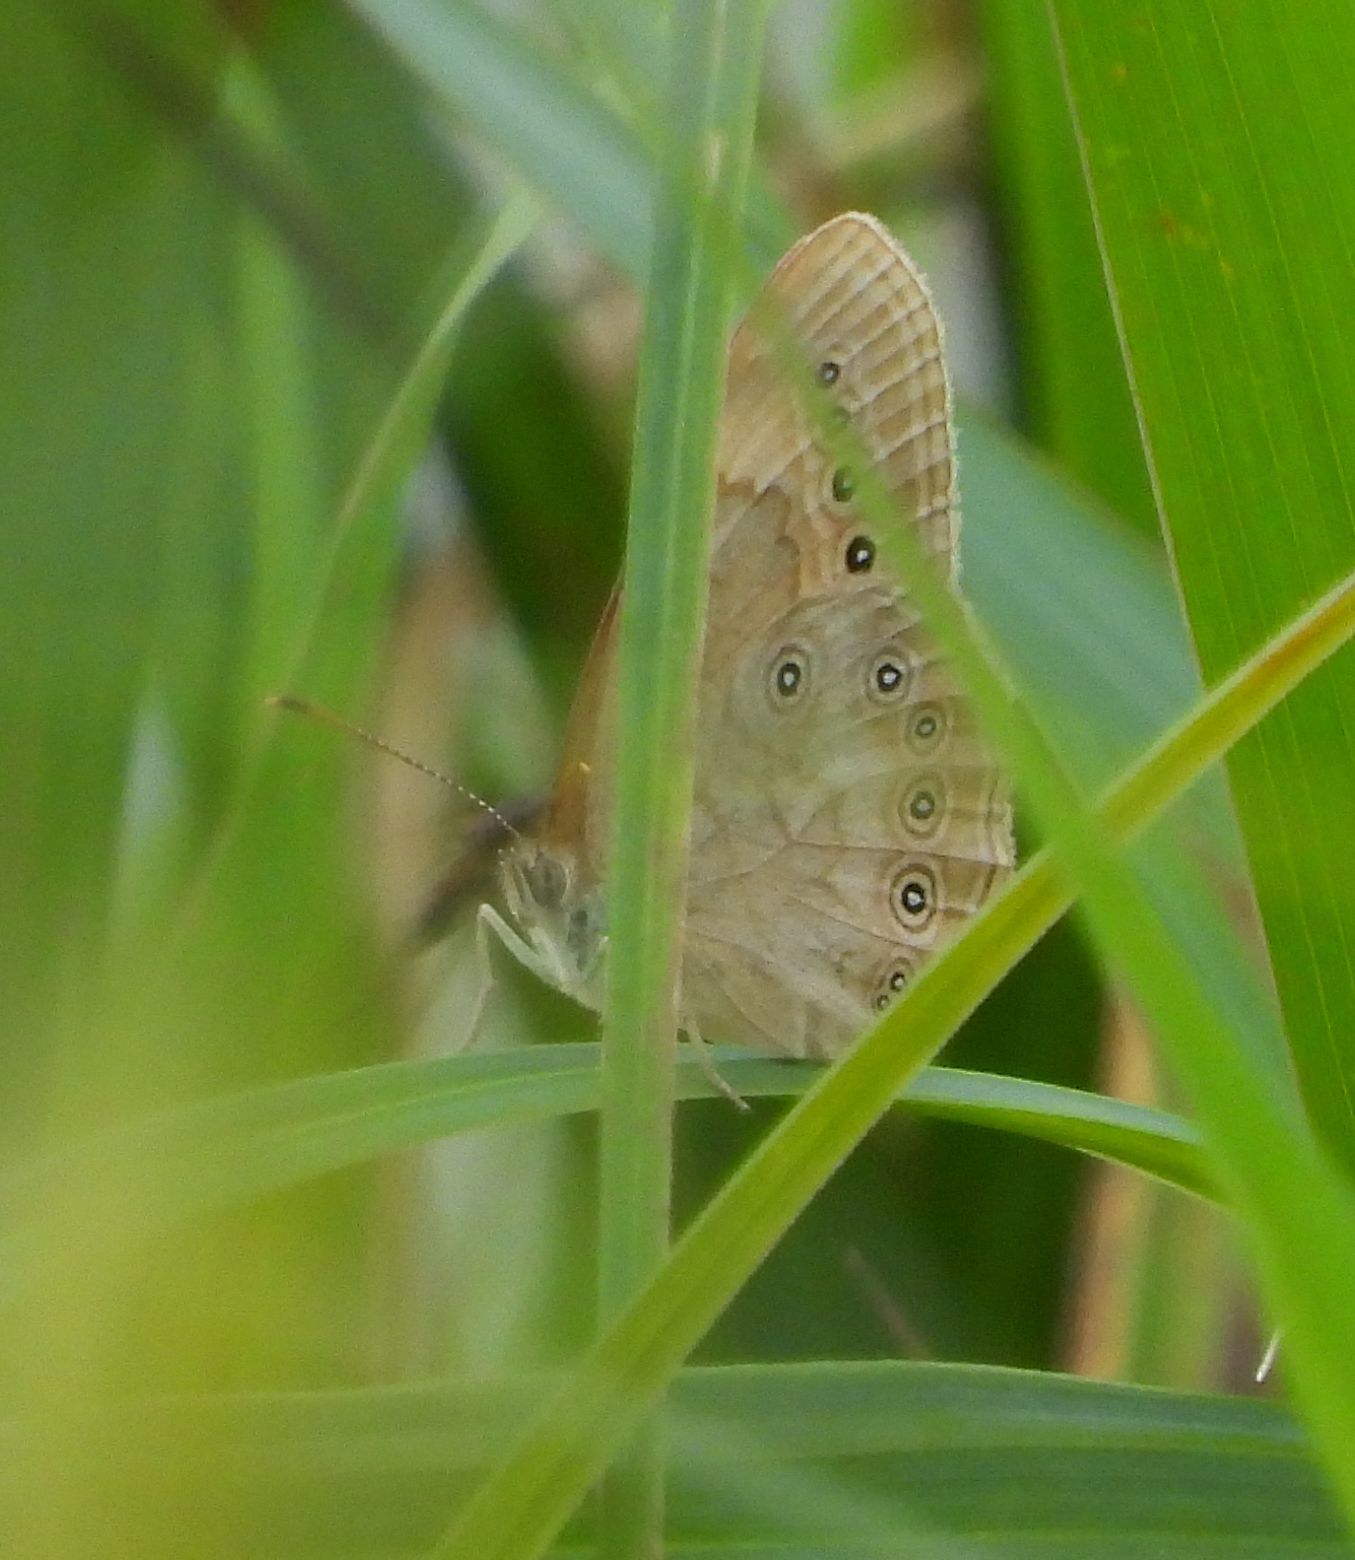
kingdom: Animalia
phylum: Arthropoda
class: Insecta
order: Lepidoptera
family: Nymphalidae
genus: Lethe
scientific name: Lethe eurydice
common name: Eyed brown
